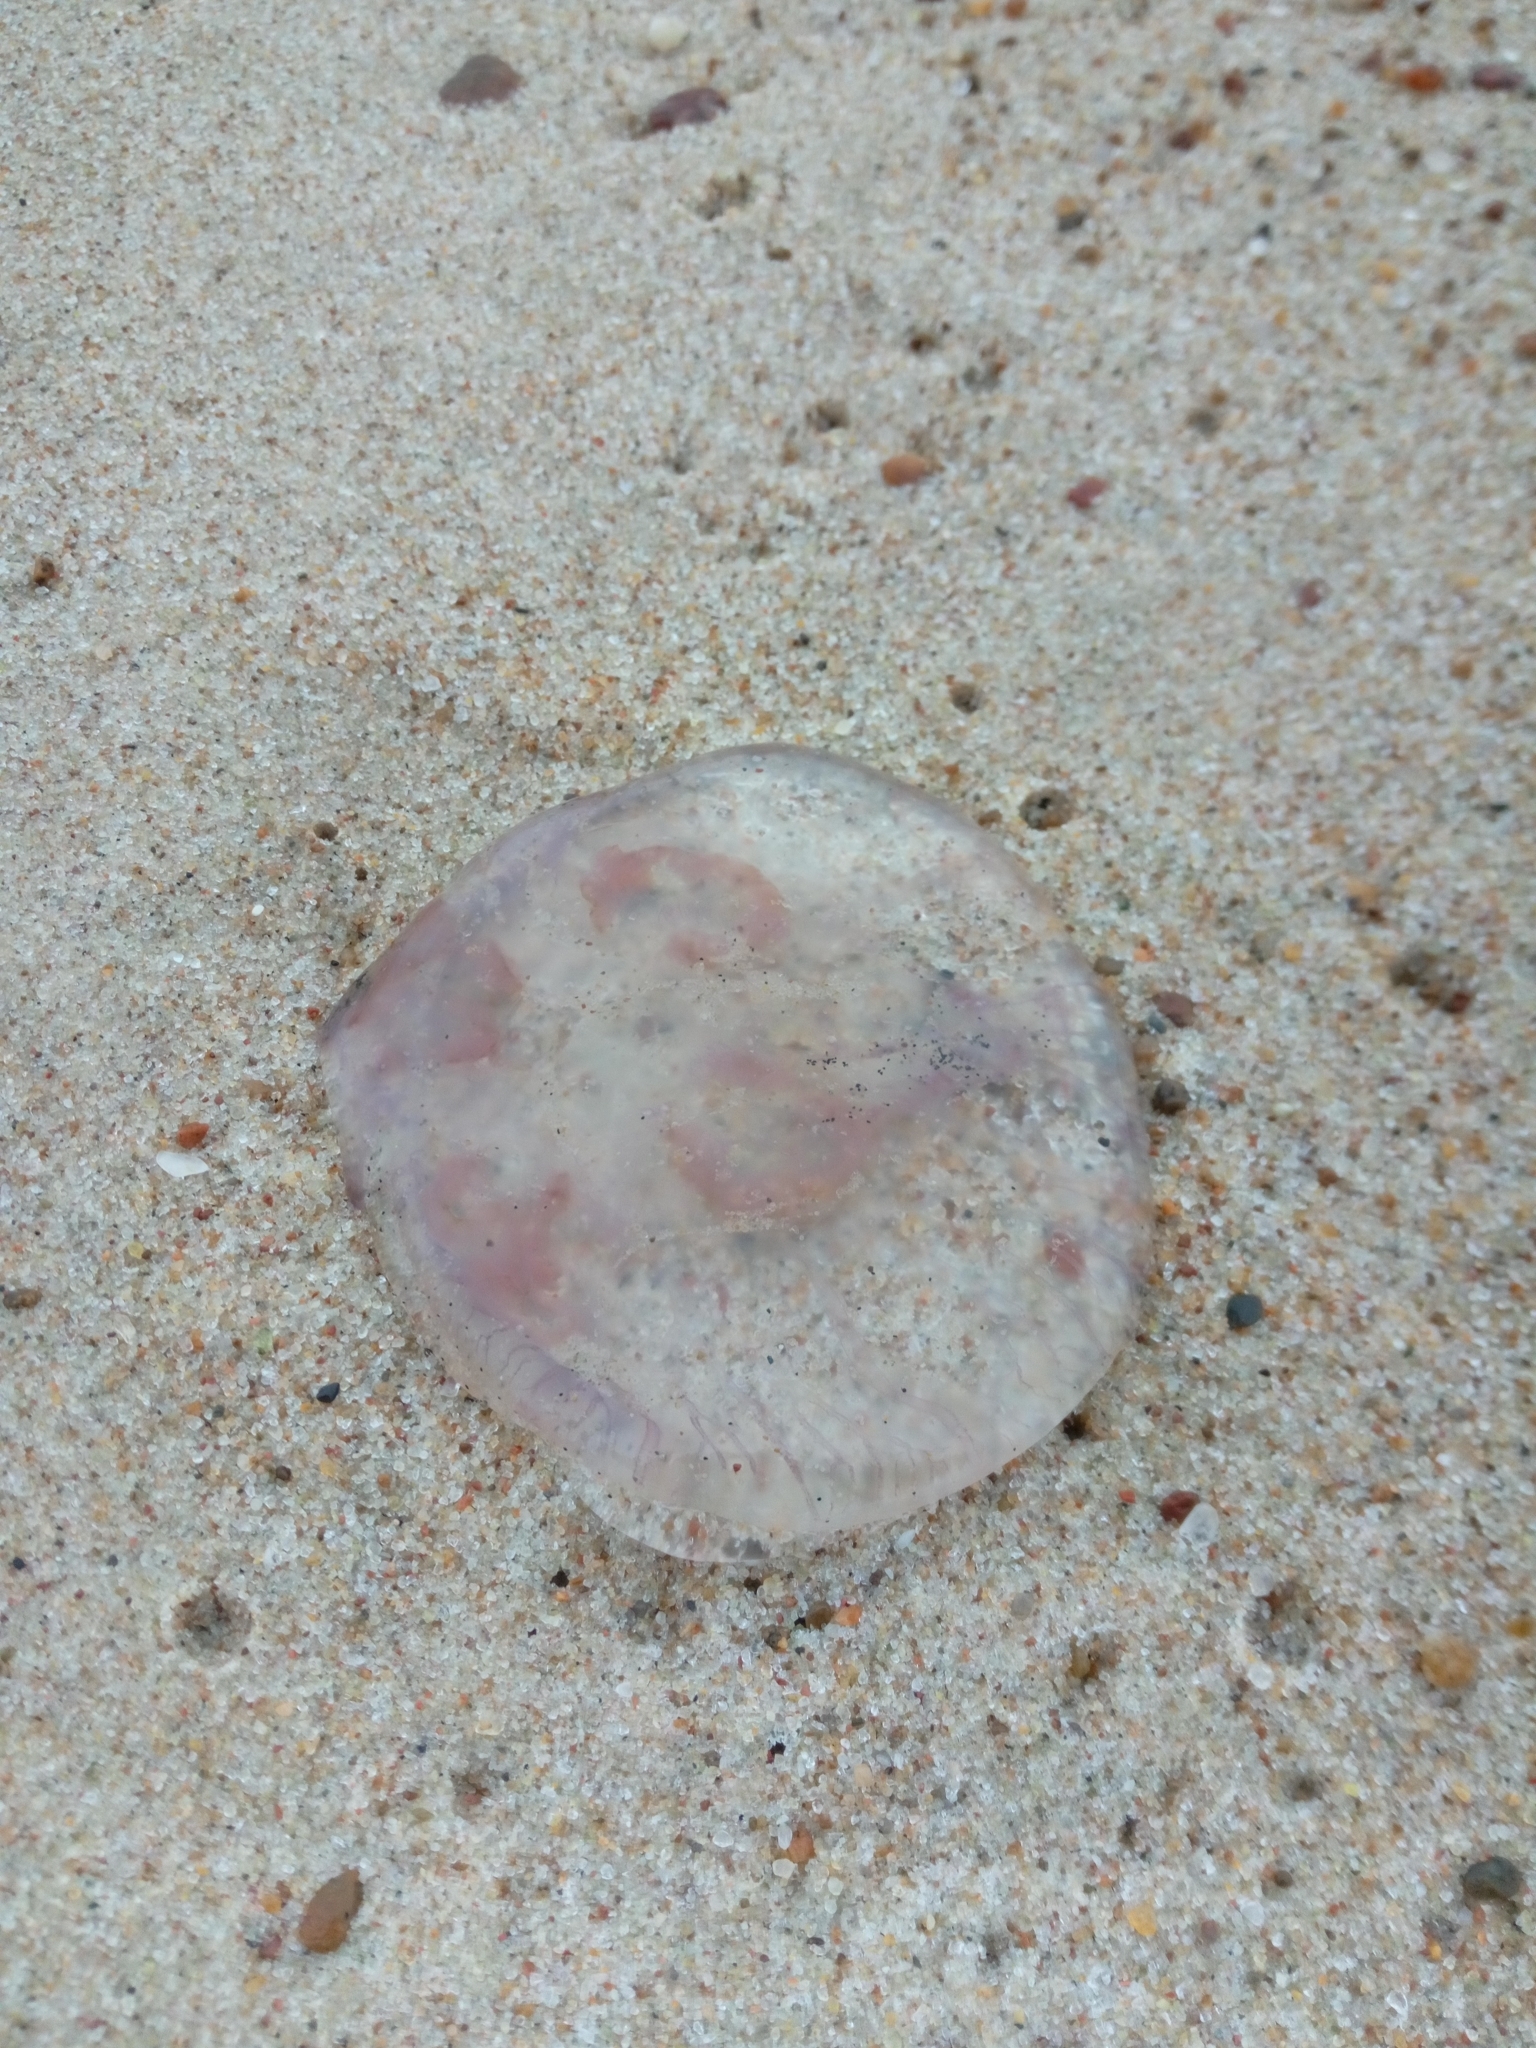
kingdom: Animalia
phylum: Cnidaria
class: Scyphozoa
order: Semaeostomeae
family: Ulmaridae
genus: Aurelia
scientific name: Aurelia aurita
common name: Moon jellyfish
